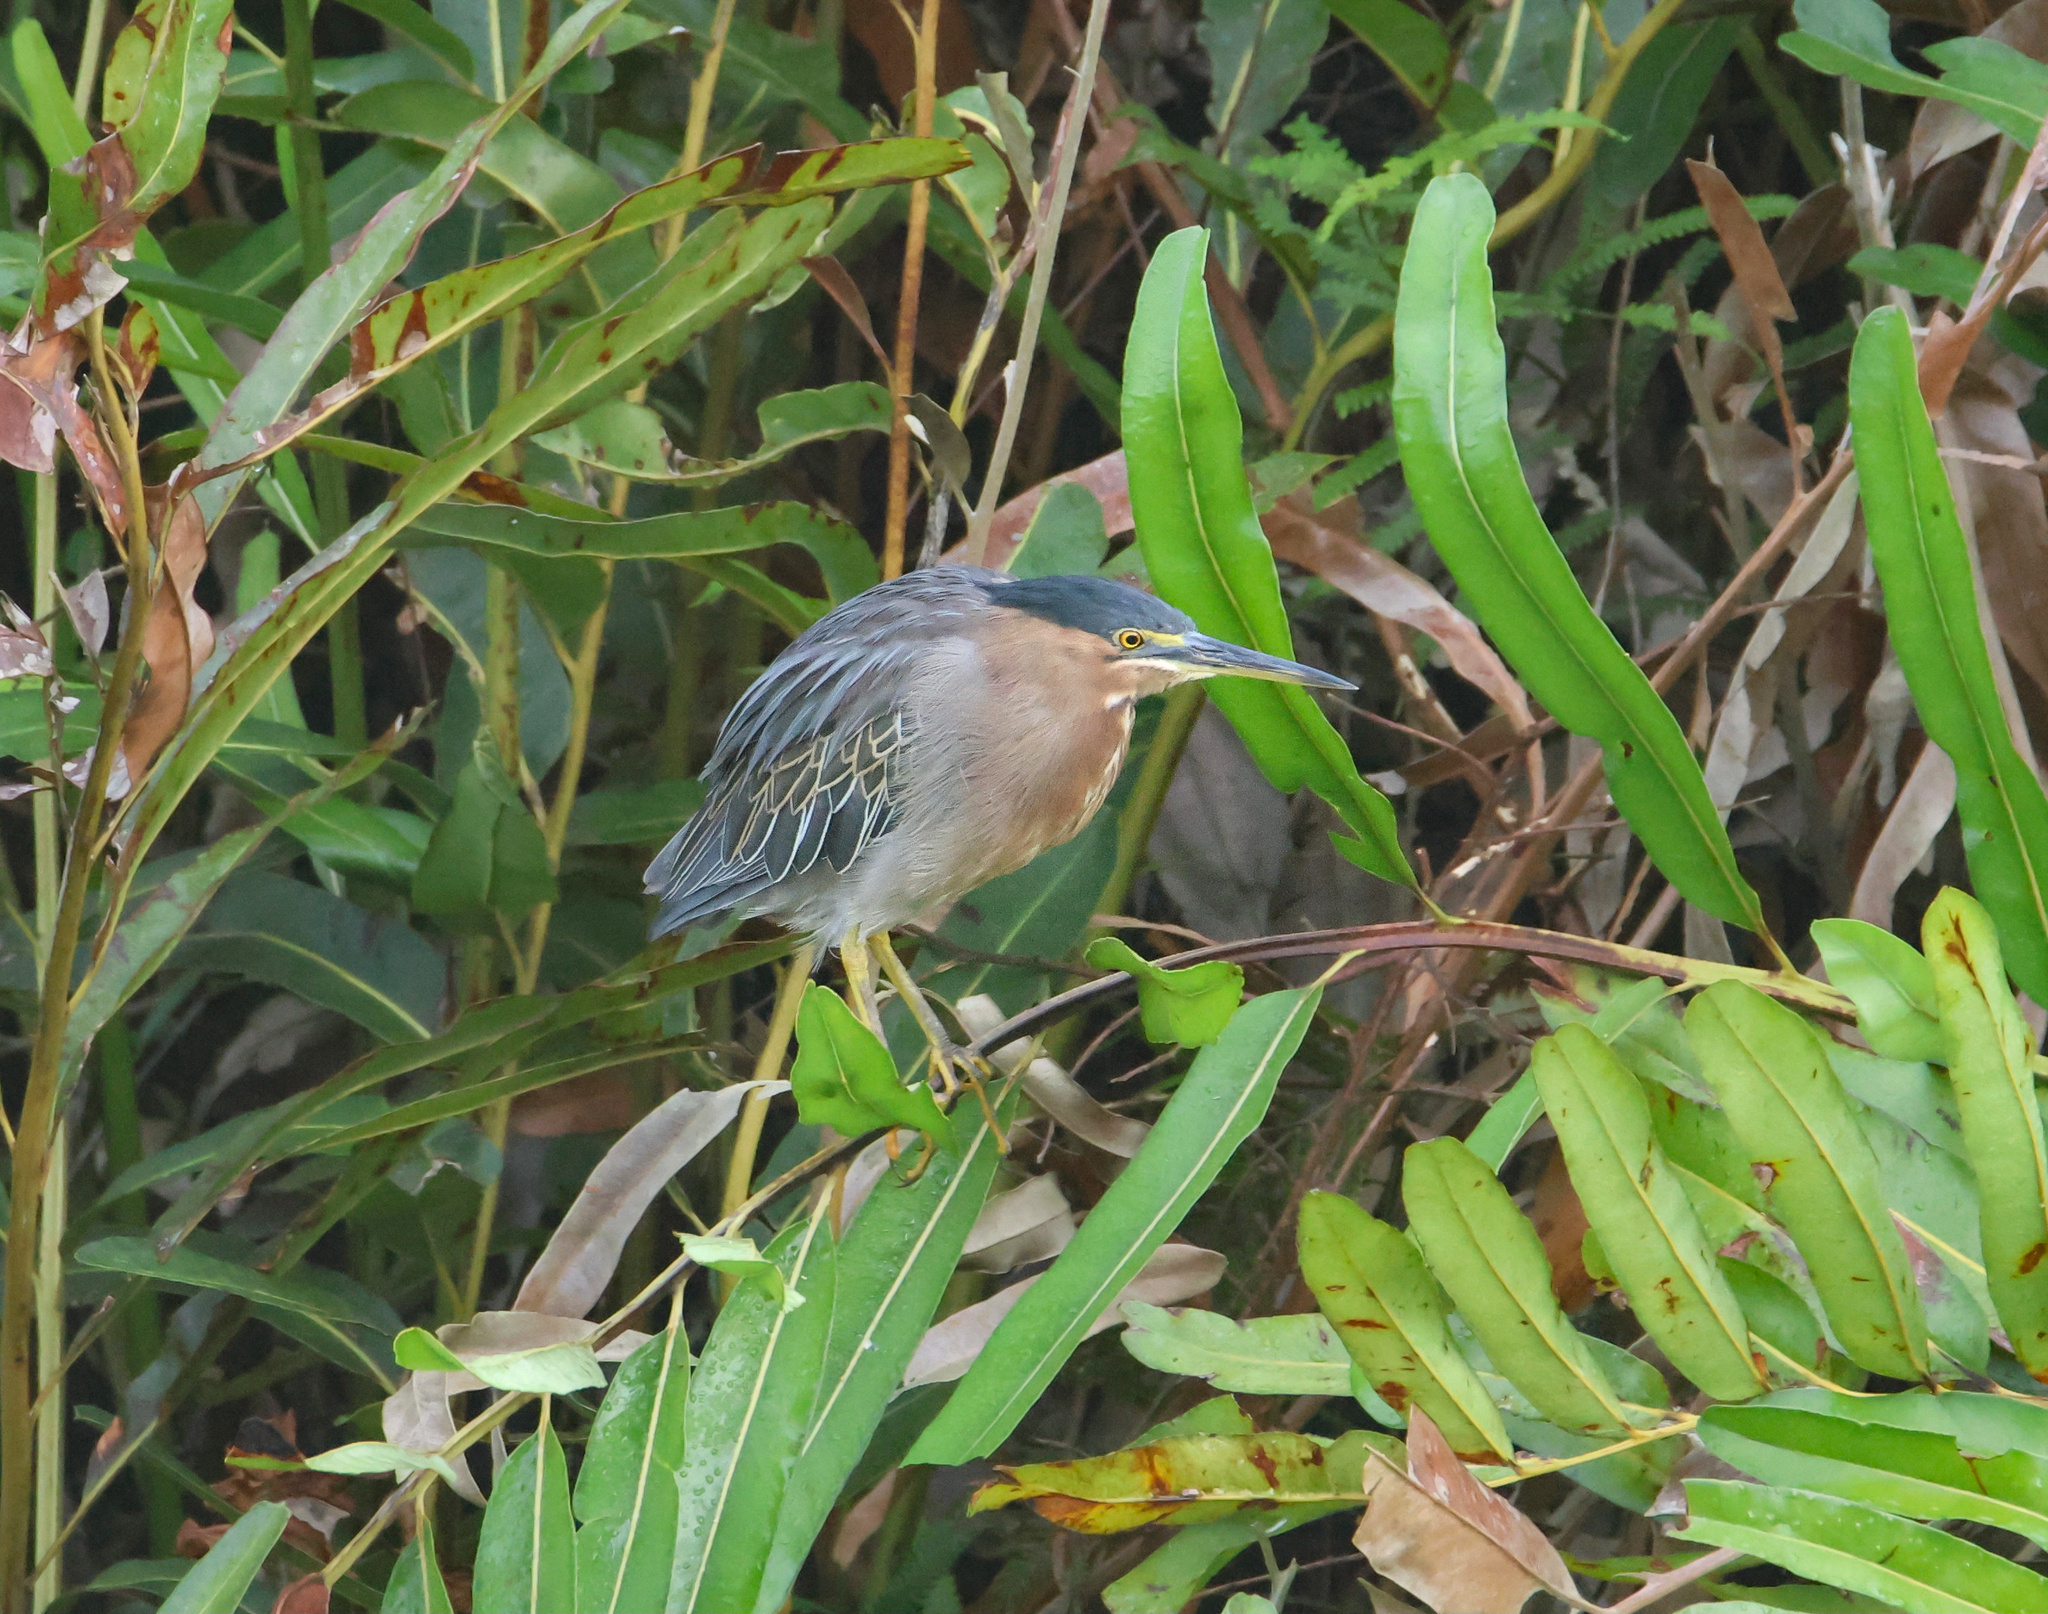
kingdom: Animalia
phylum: Chordata
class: Aves
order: Pelecaniformes
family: Ardeidae
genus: Butorides
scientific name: Butorides striata
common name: Striated heron
